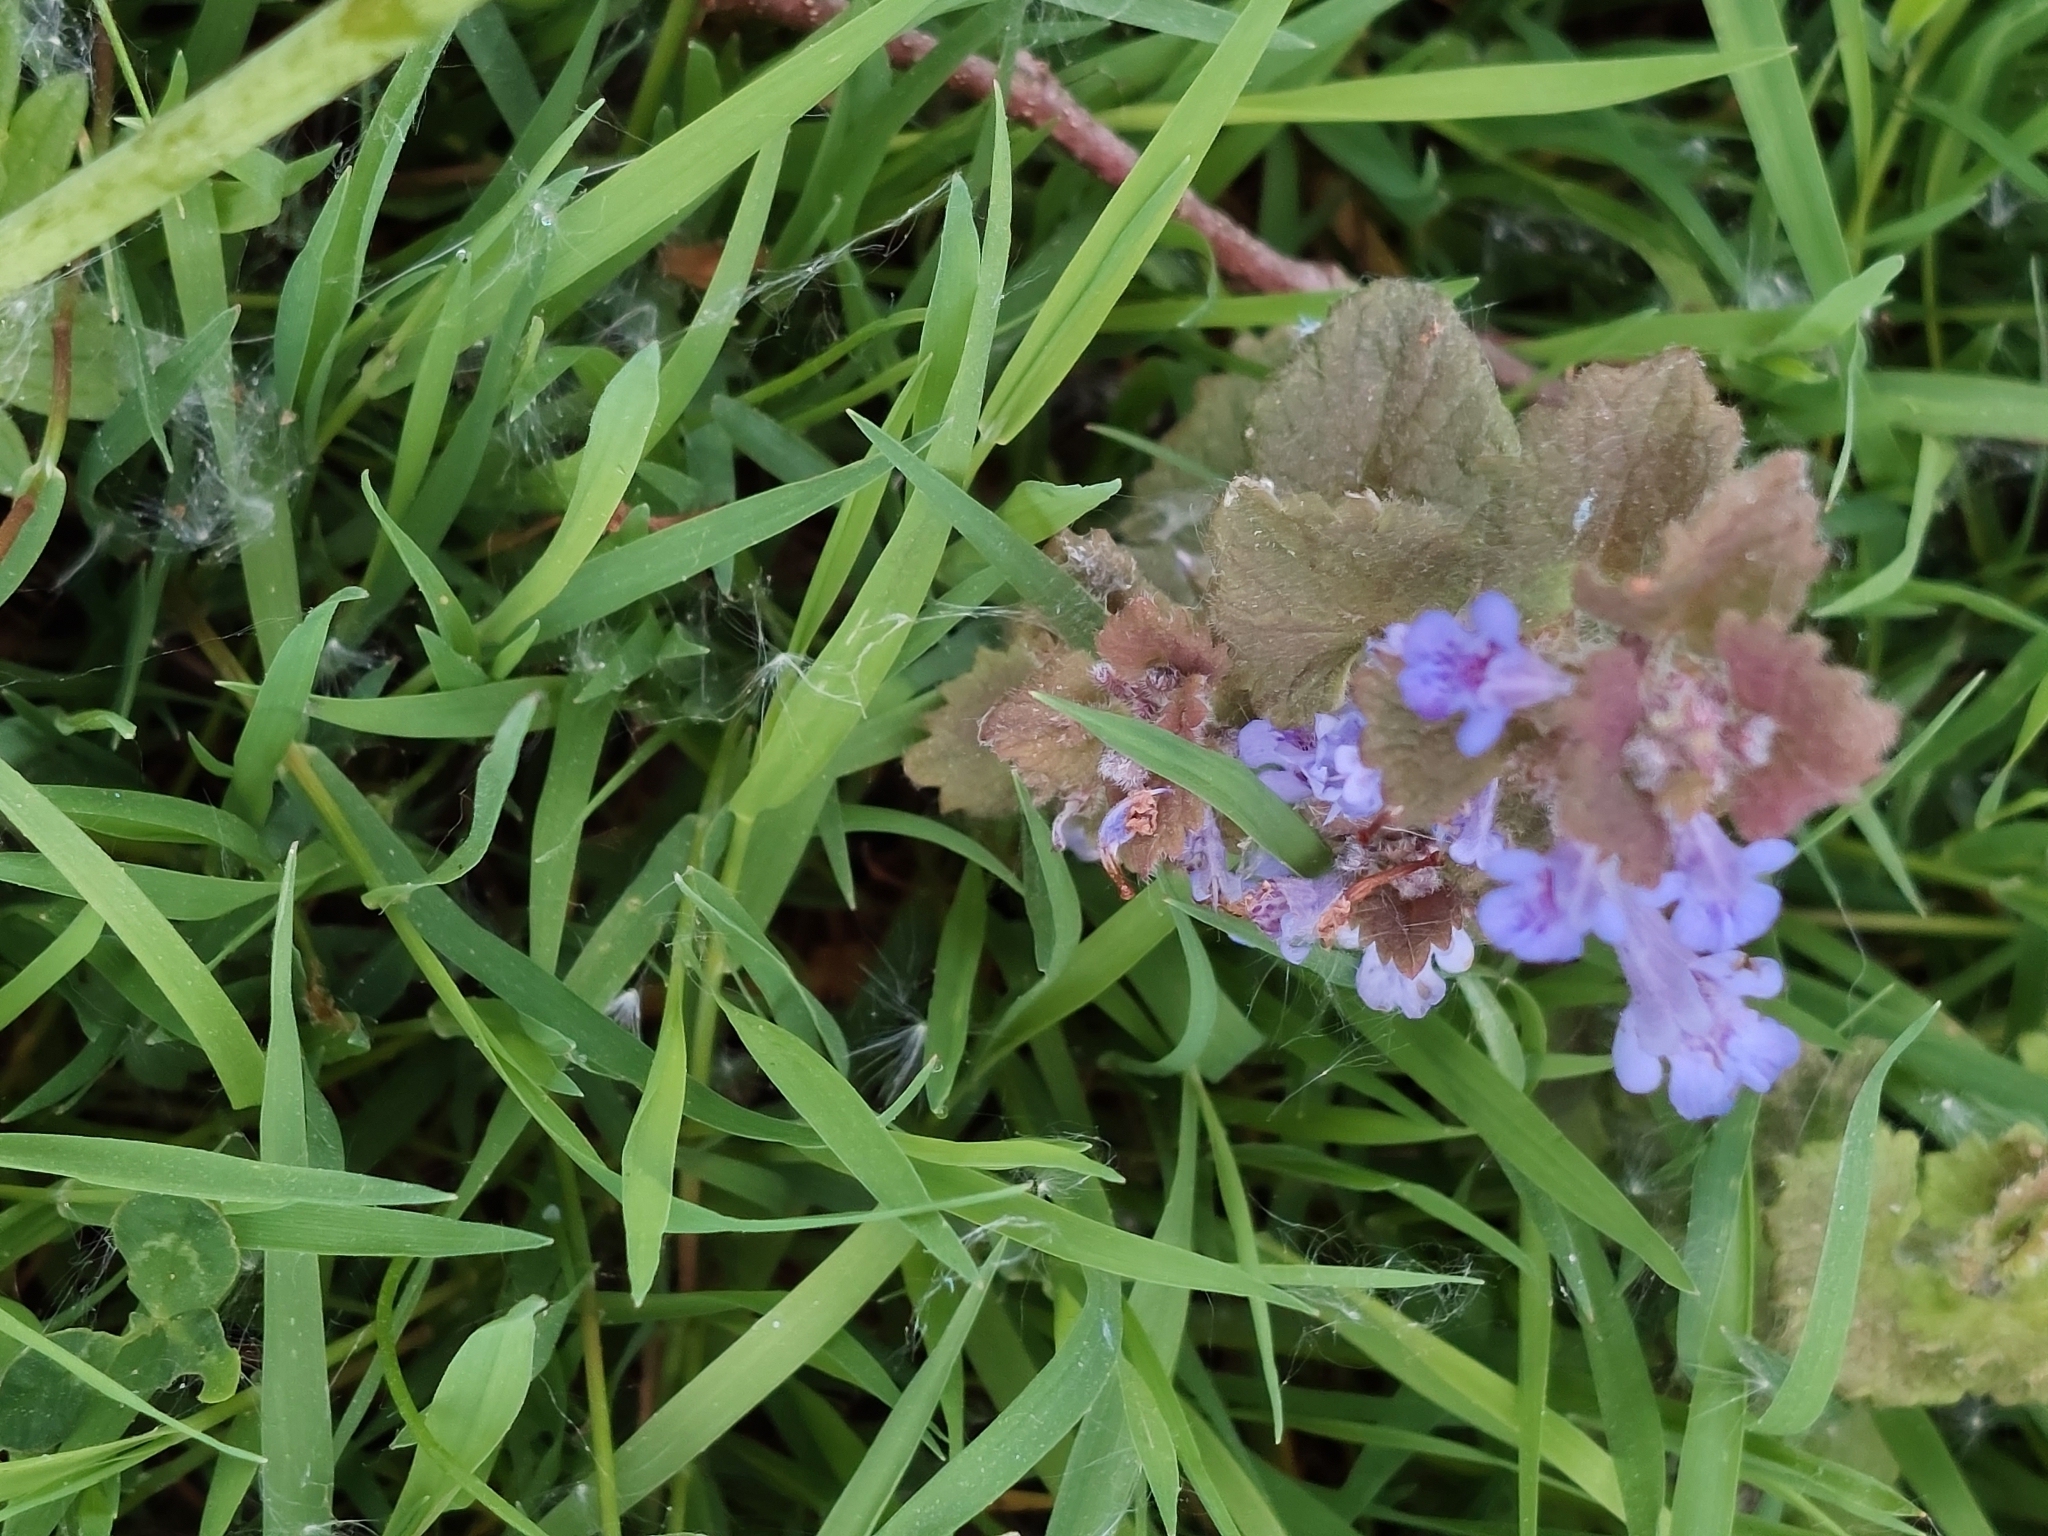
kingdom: Plantae
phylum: Tracheophyta
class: Magnoliopsida
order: Lamiales
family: Lamiaceae
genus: Glechoma
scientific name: Glechoma hederacea
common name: Ground ivy
